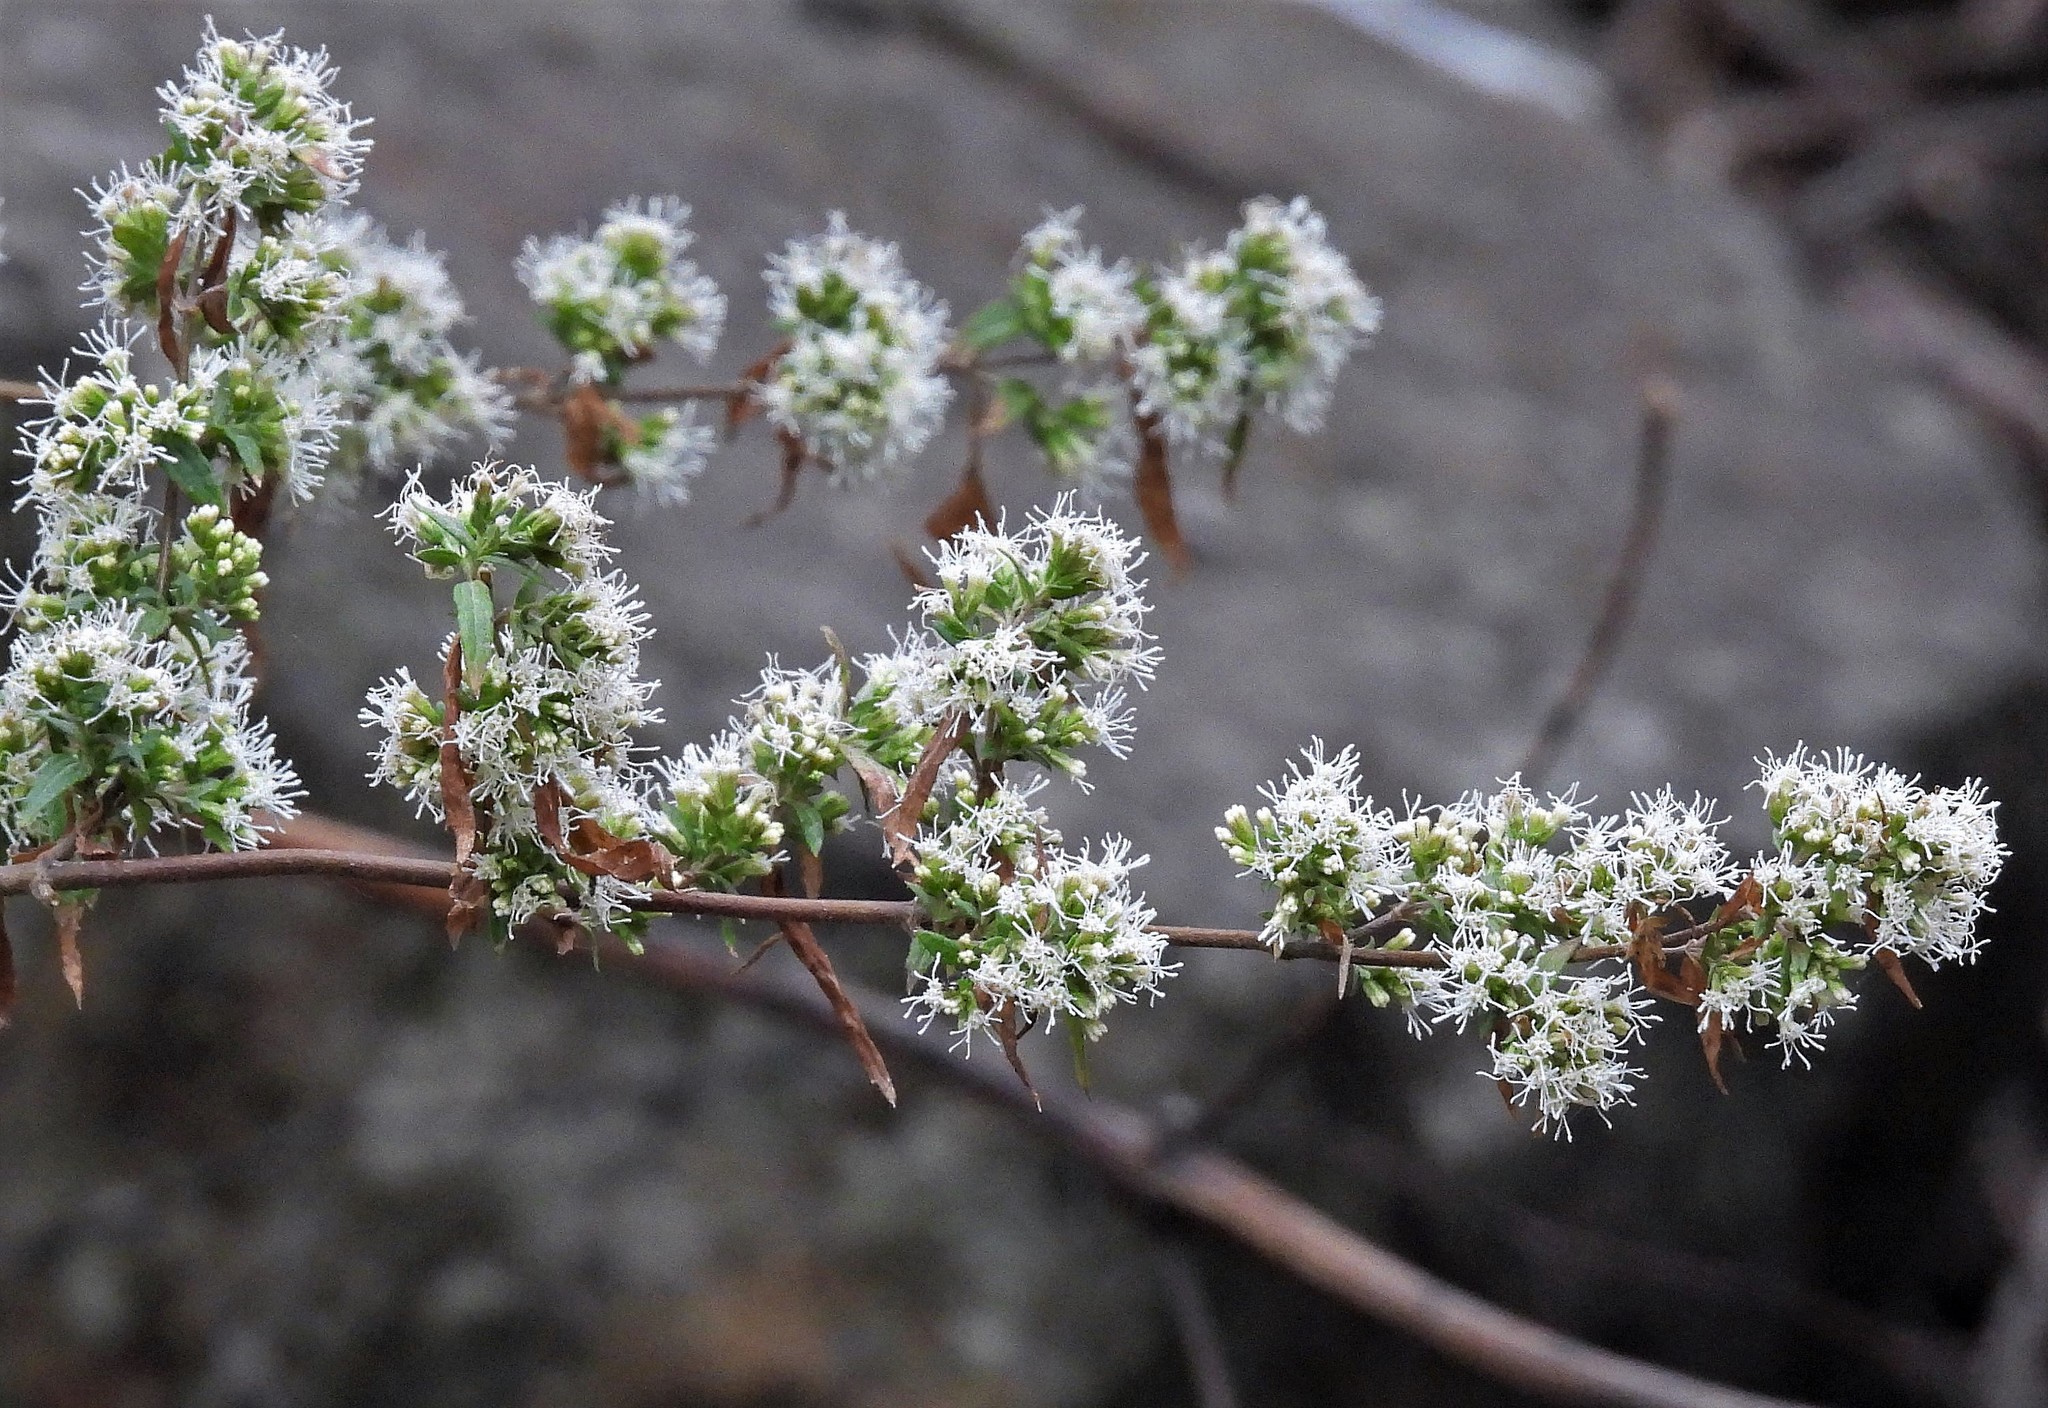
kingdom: Plantae
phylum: Tracheophyta
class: Magnoliopsida
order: Asterales
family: Asteraceae
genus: Ophryosporus
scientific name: Ophryosporus piquerioides
